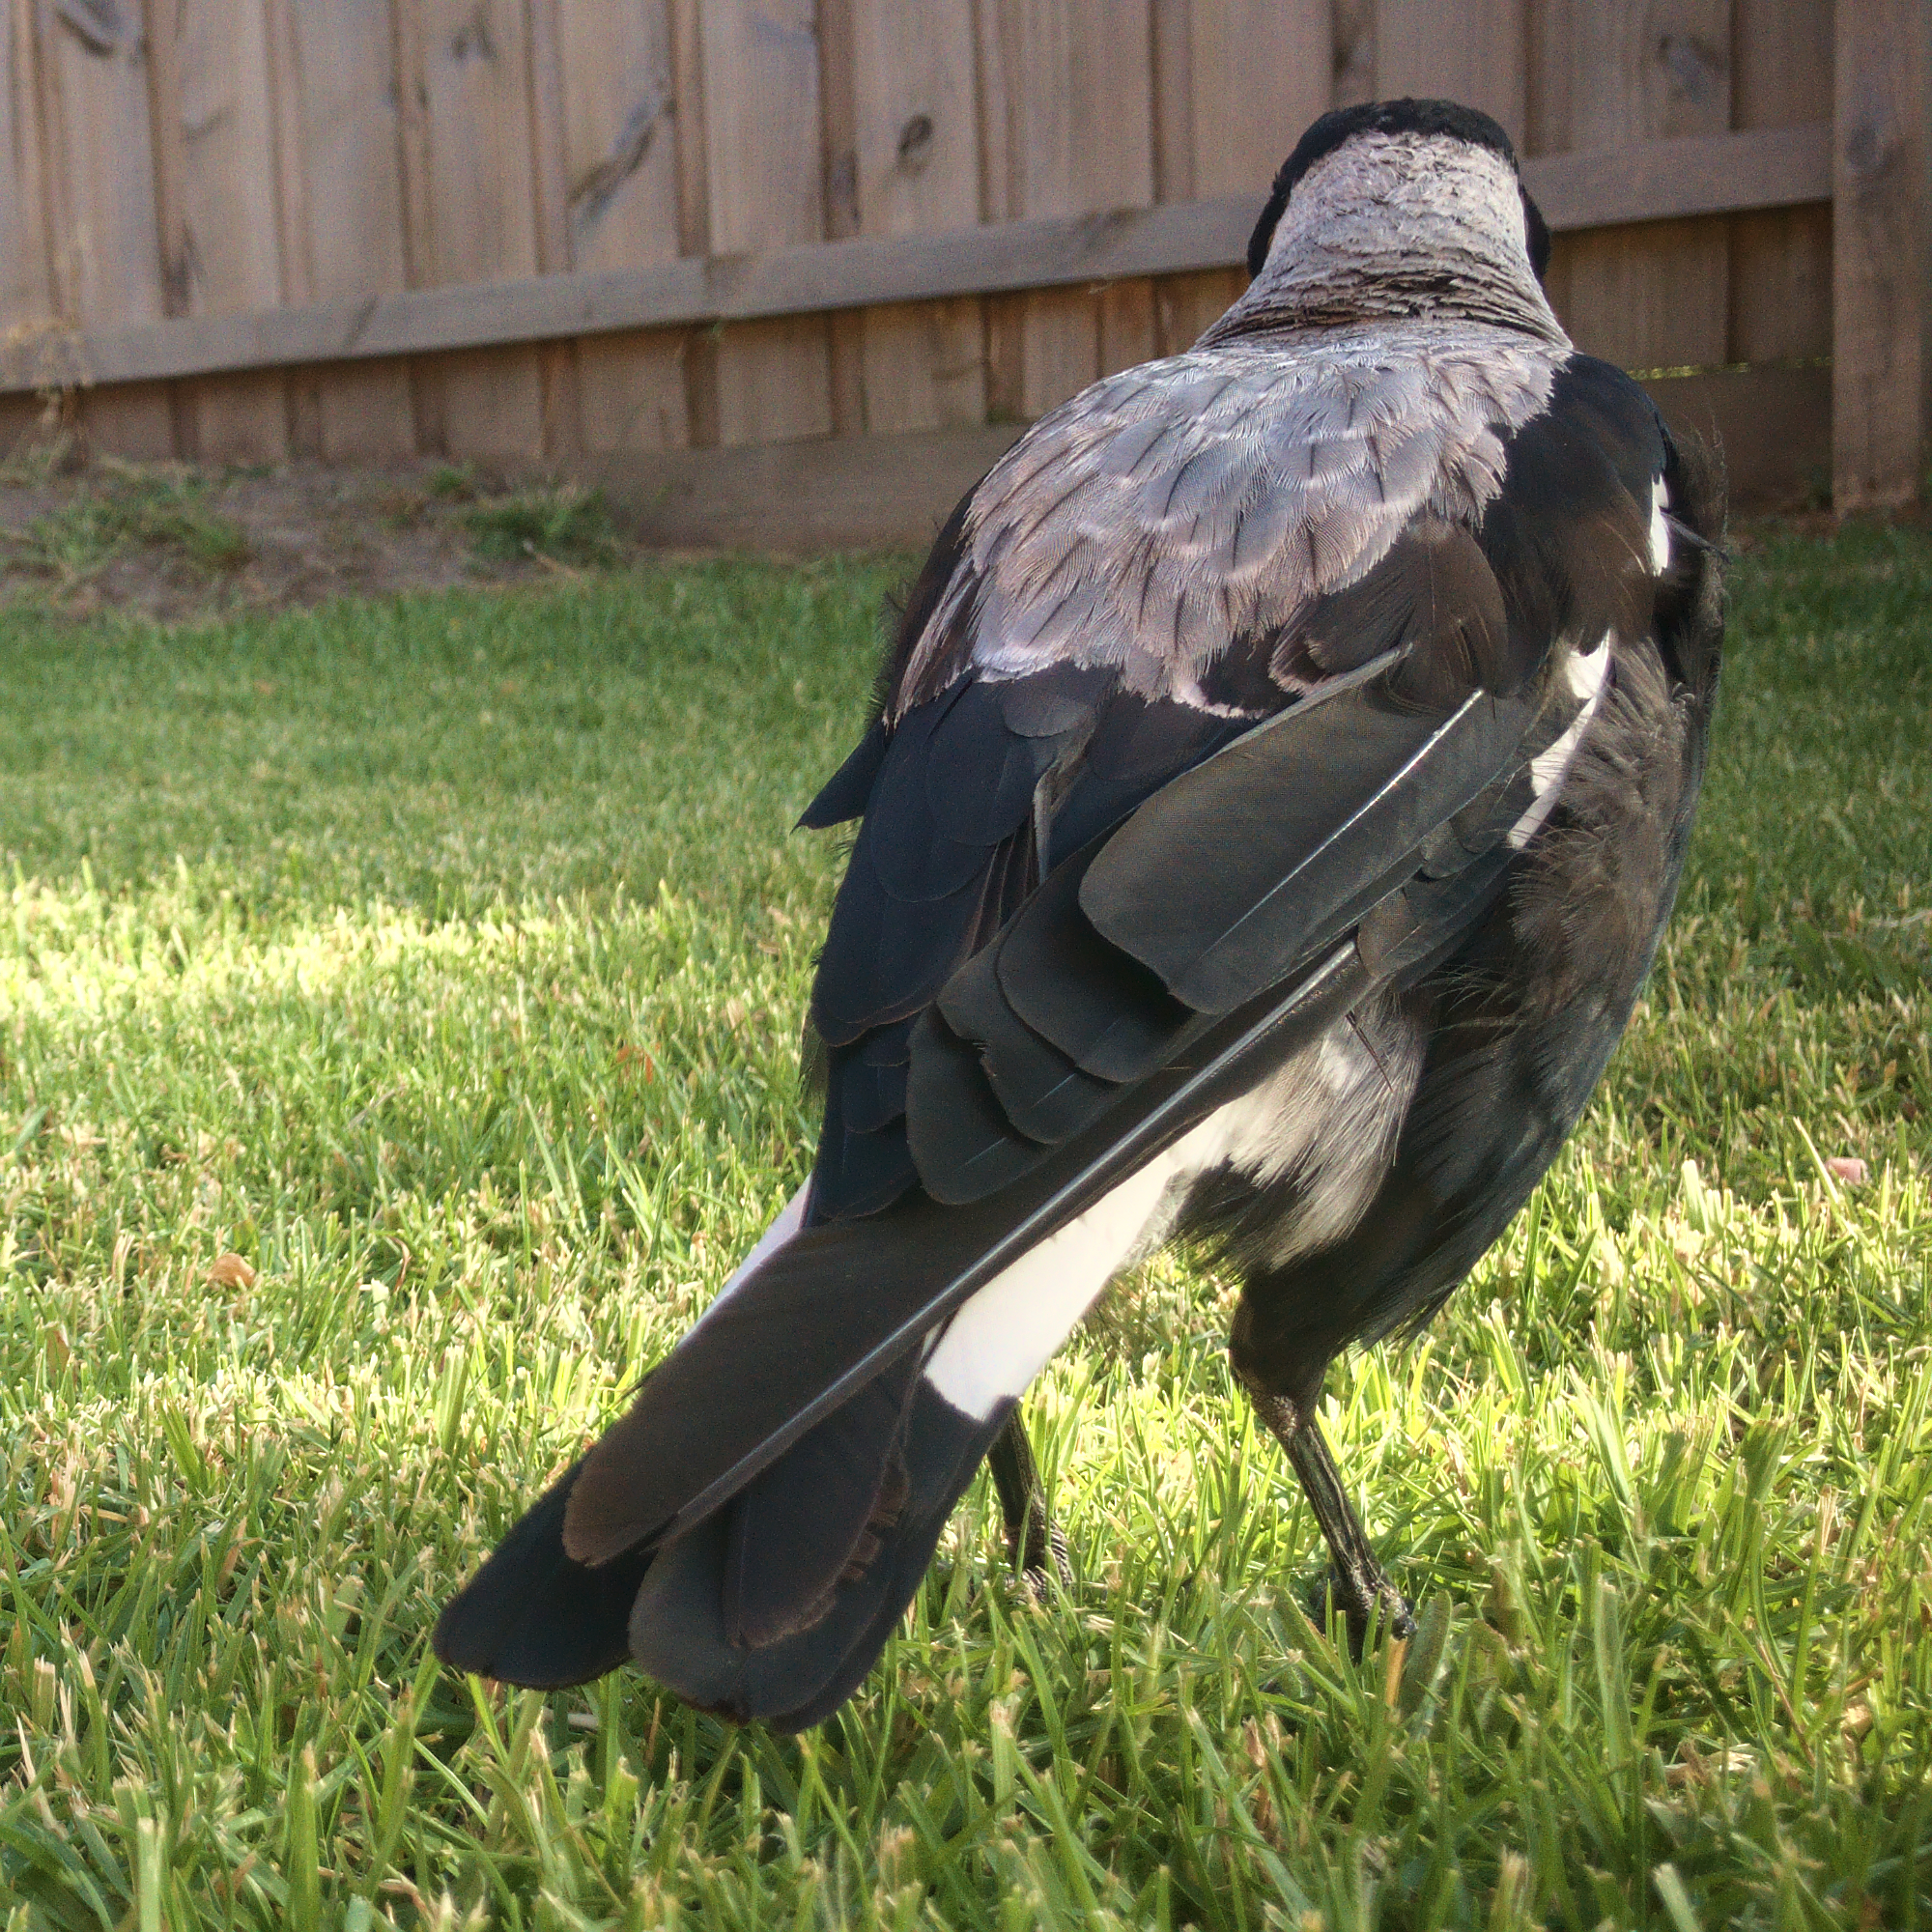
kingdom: Animalia
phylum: Chordata
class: Aves
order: Passeriformes
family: Cracticidae
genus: Gymnorhina
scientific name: Gymnorhina tibicen
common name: Australian magpie
